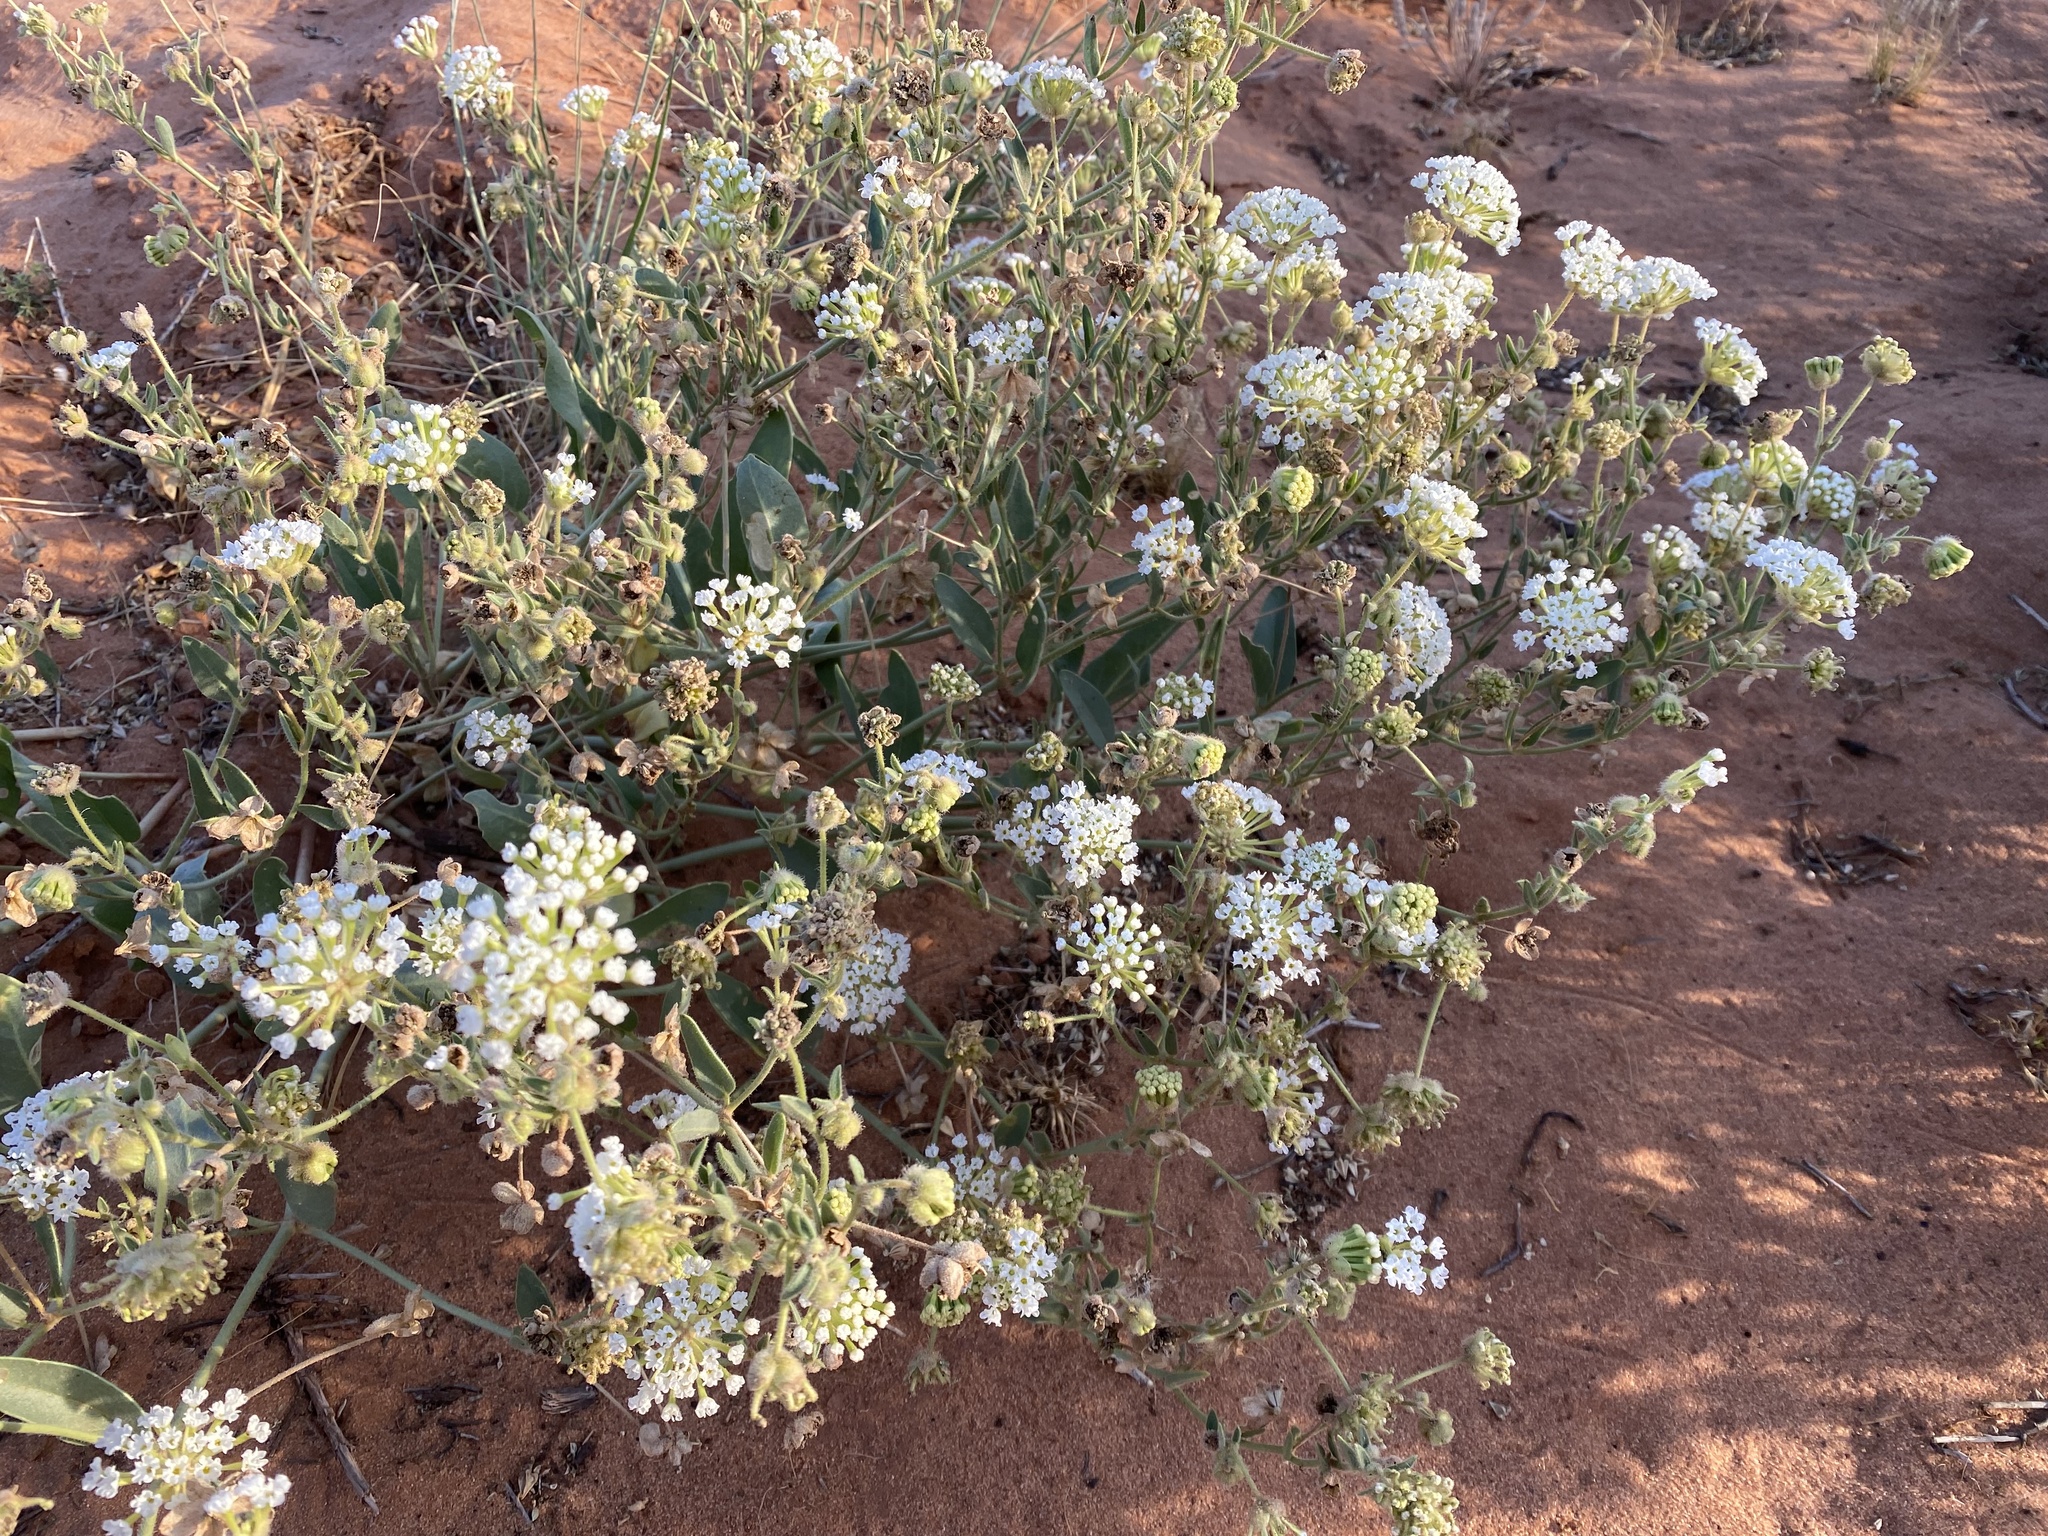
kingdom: Plantae
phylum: Tracheophyta
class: Magnoliopsida
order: Caryophyllales
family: Nyctaginaceae
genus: Abronia
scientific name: Abronia elliptica
